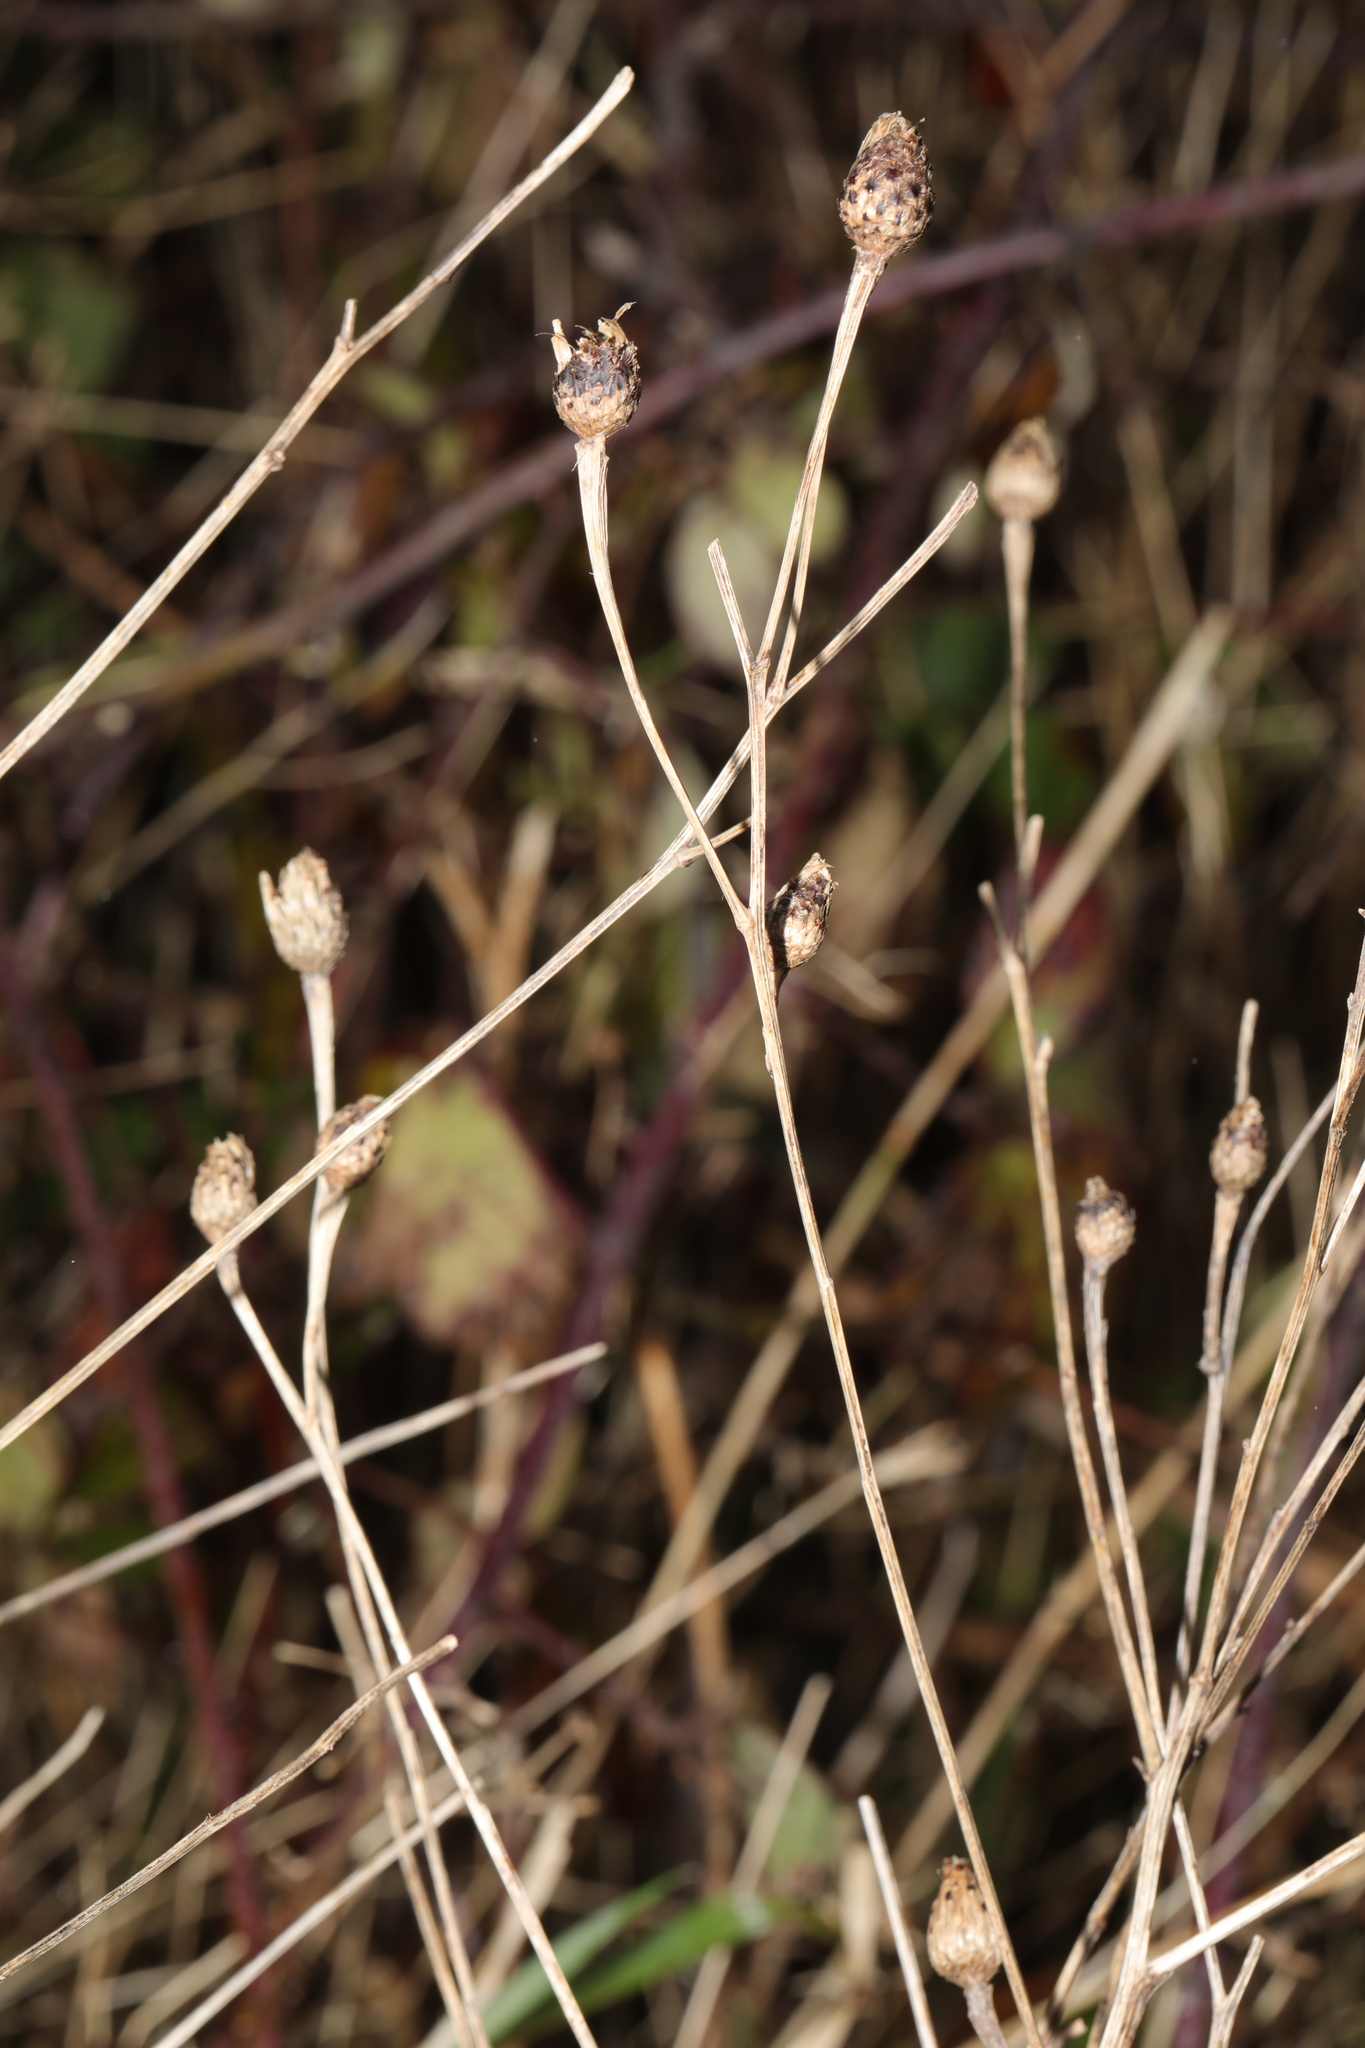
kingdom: Plantae
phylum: Tracheophyta
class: Magnoliopsida
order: Asterales
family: Asteraceae
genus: Centaurea
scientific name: Centaurea nigra
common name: Lesser knapweed
